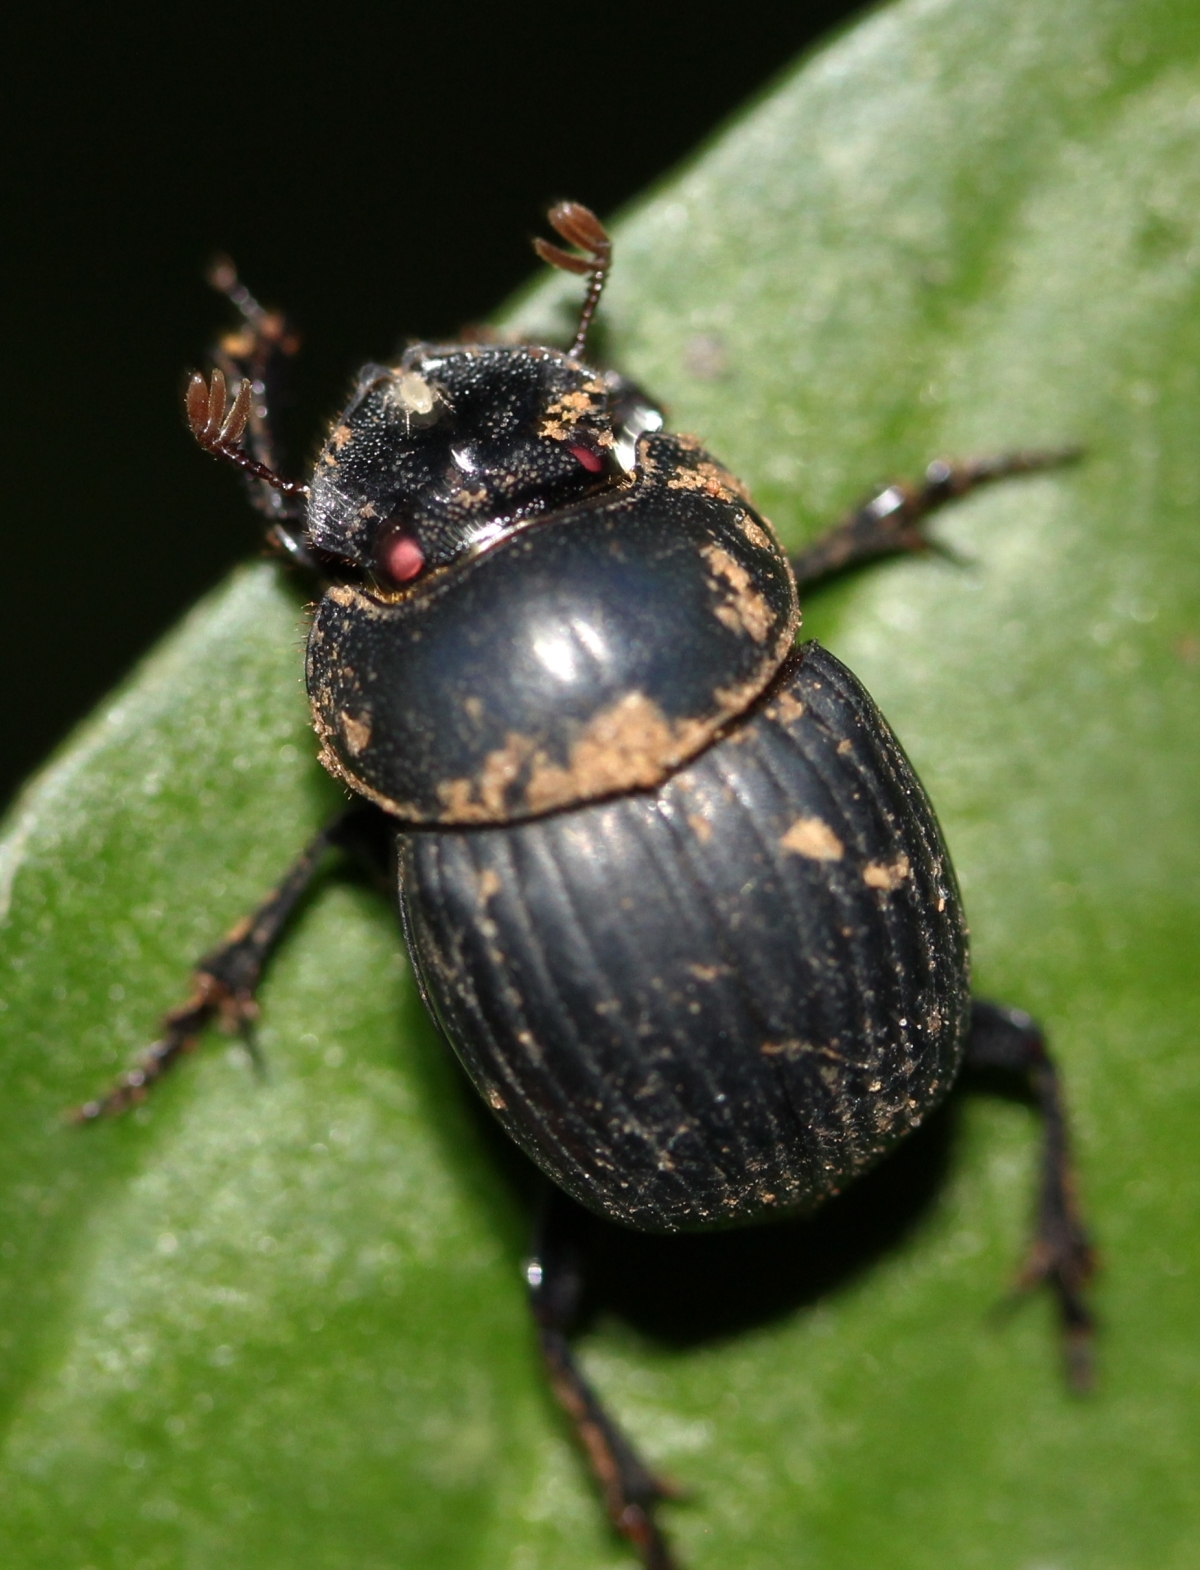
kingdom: Animalia
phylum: Arthropoda
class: Insecta
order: Coleoptera
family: Scarabaeidae
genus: Dichotomius
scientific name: Dichotomius
